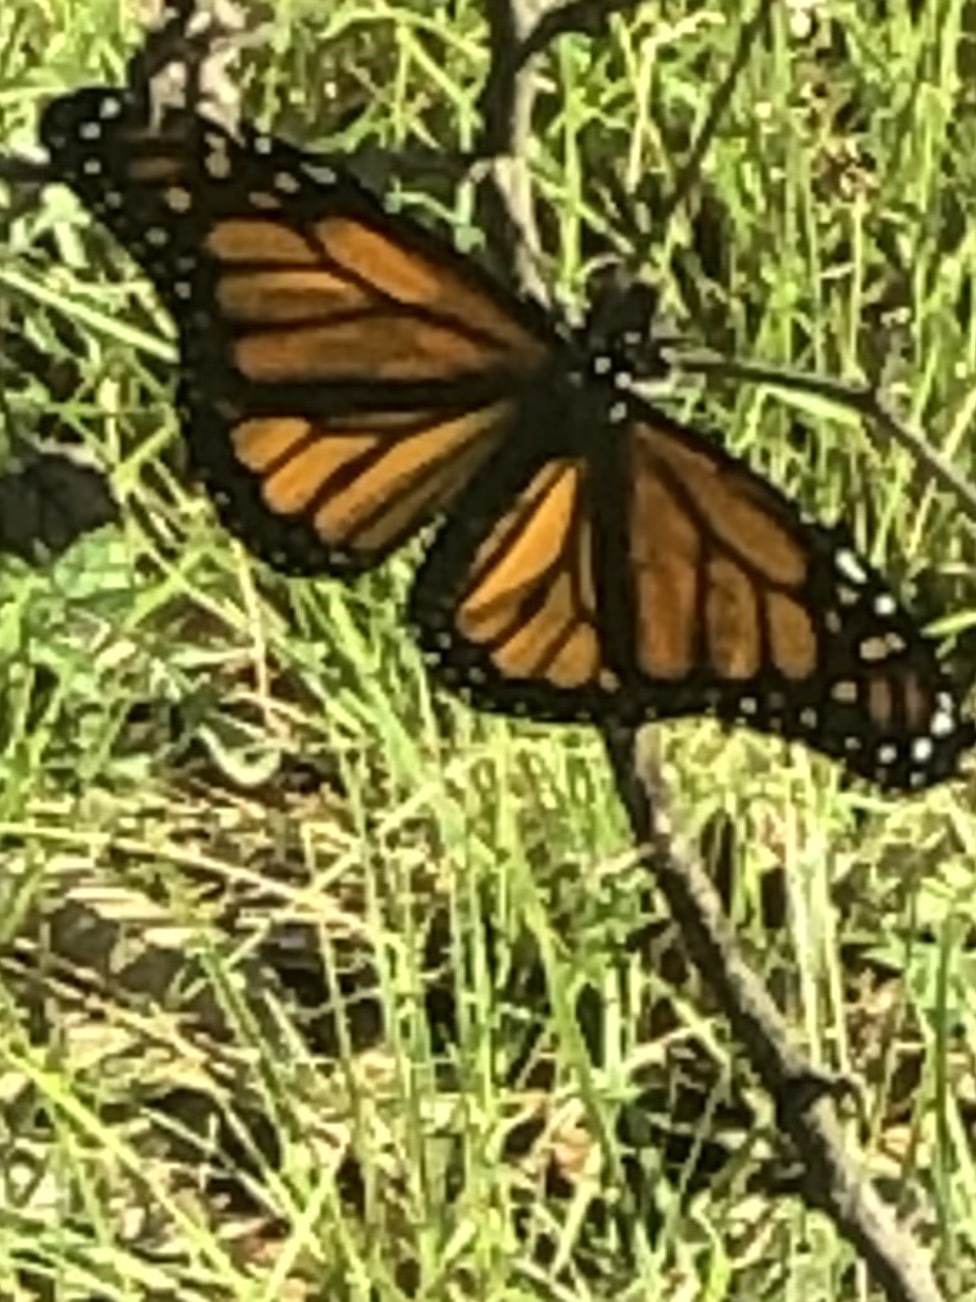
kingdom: Animalia
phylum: Arthropoda
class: Insecta
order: Lepidoptera
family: Nymphalidae
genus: Danaus
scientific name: Danaus plexippus
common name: Monarch
